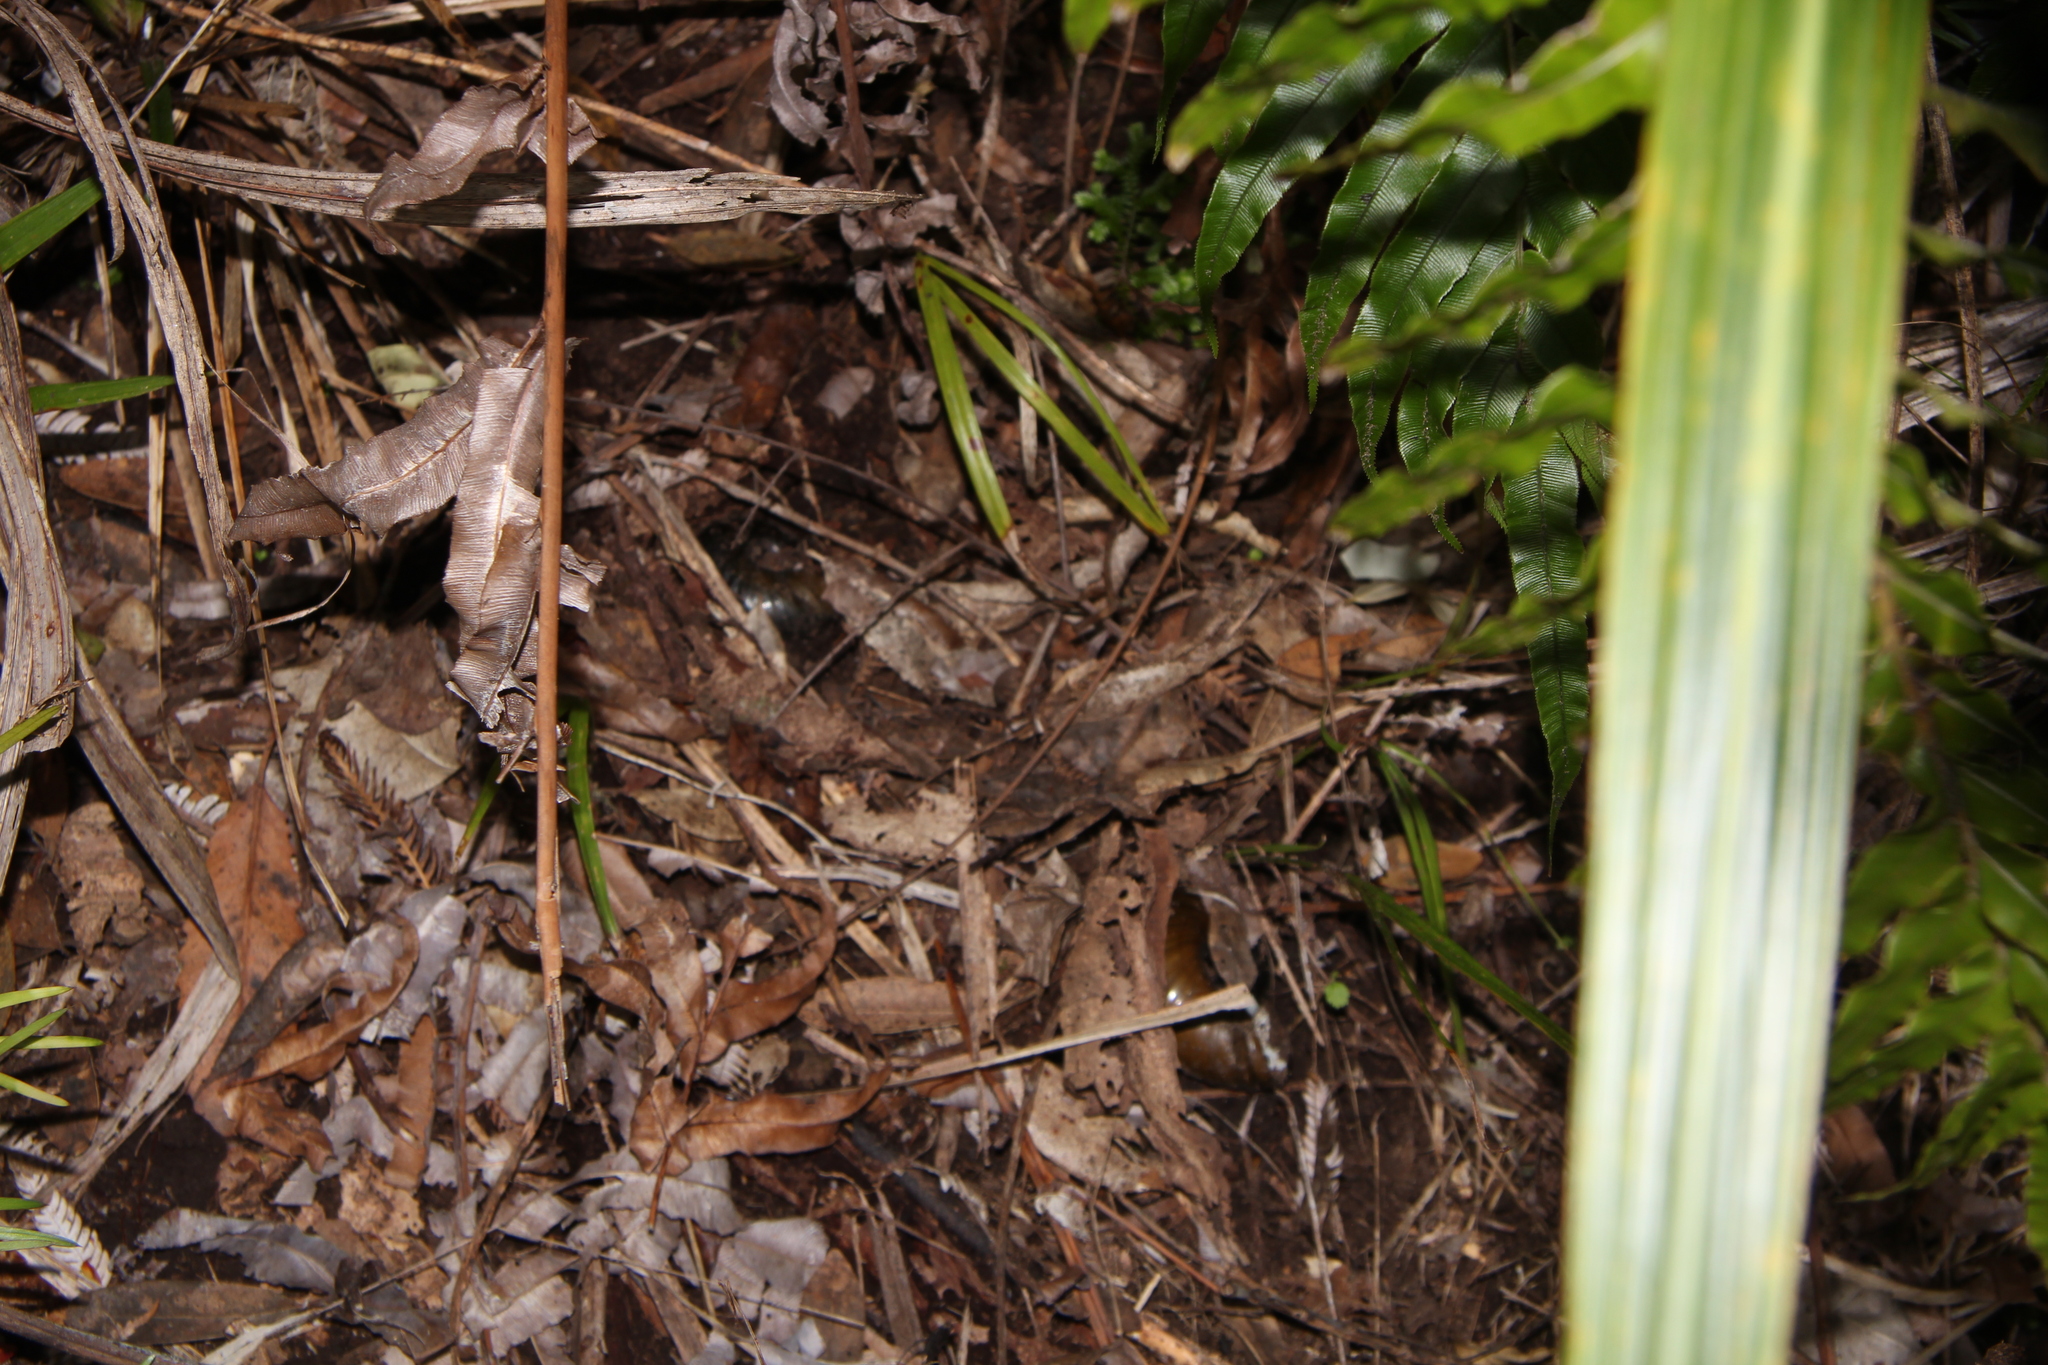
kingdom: Animalia
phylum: Mollusca
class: Gastropoda
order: Stylommatophora
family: Rhytididae
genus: Paryphanta
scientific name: Paryphanta busbyi
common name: Kauri snail
